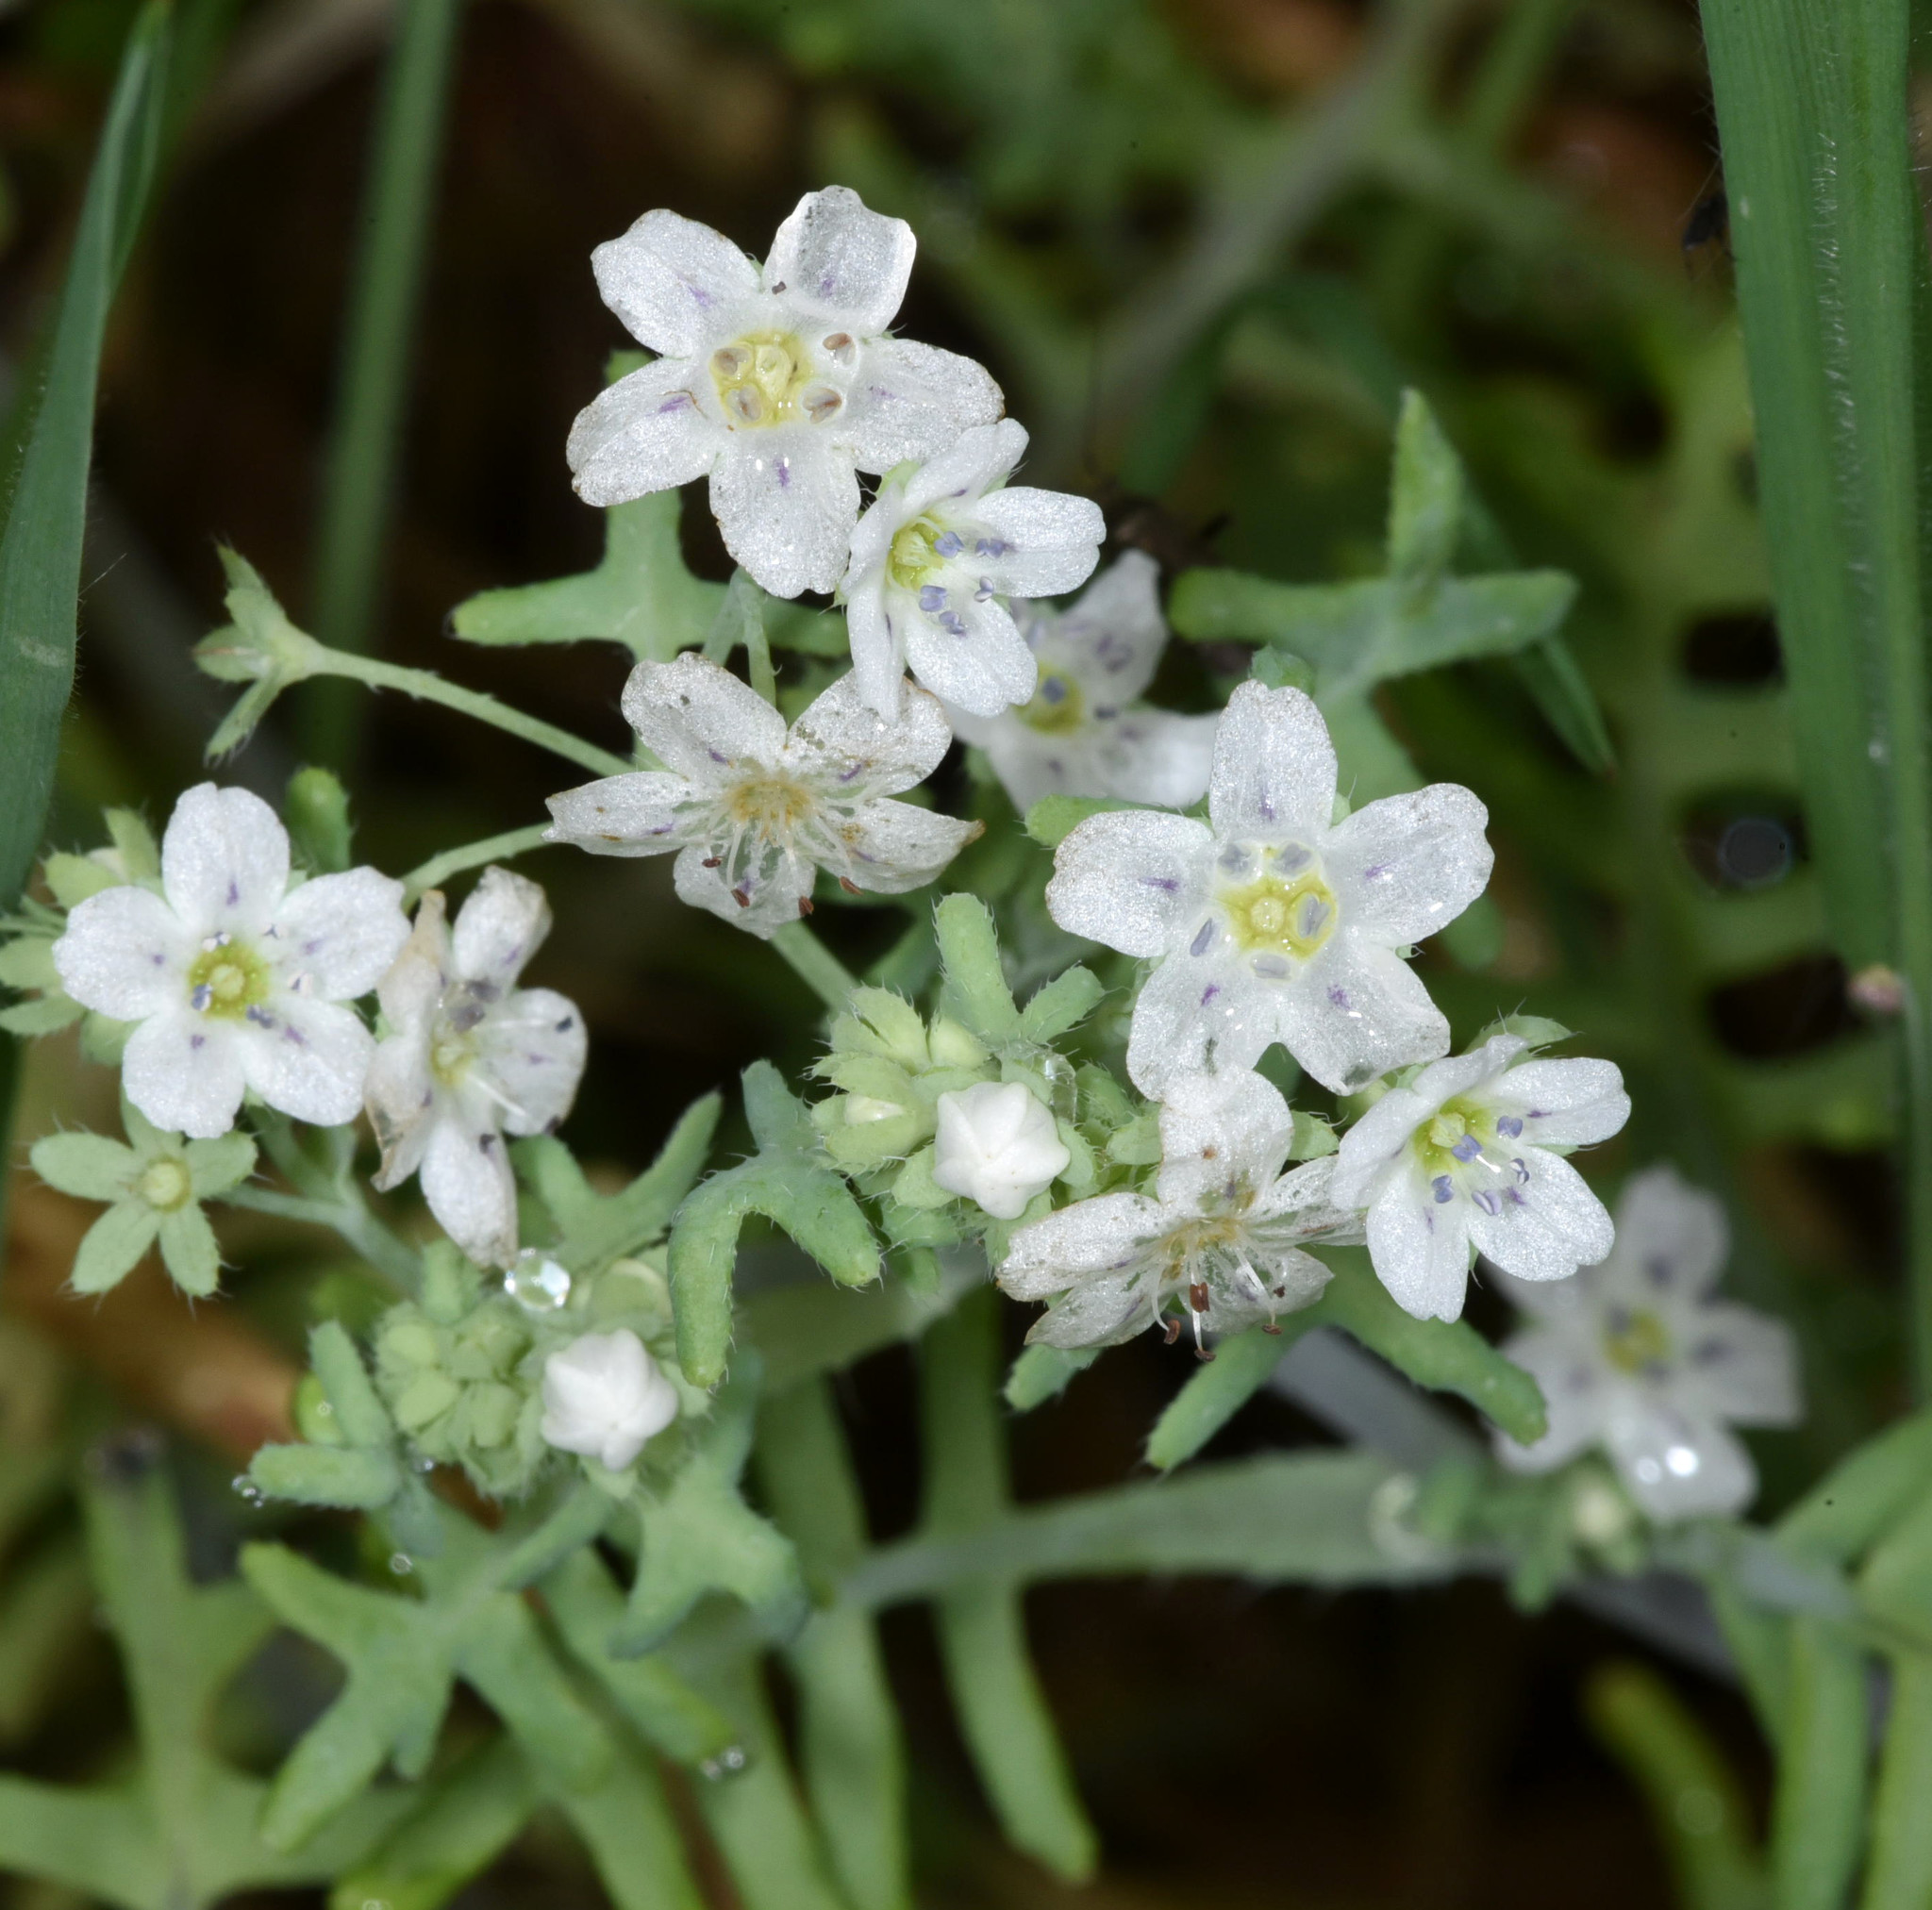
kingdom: Plantae
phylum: Tracheophyta
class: Magnoliopsida
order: Boraginales
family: Hydrophyllaceae
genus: Pholistoma
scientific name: Pholistoma membranaceum
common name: White fiesta-flower
